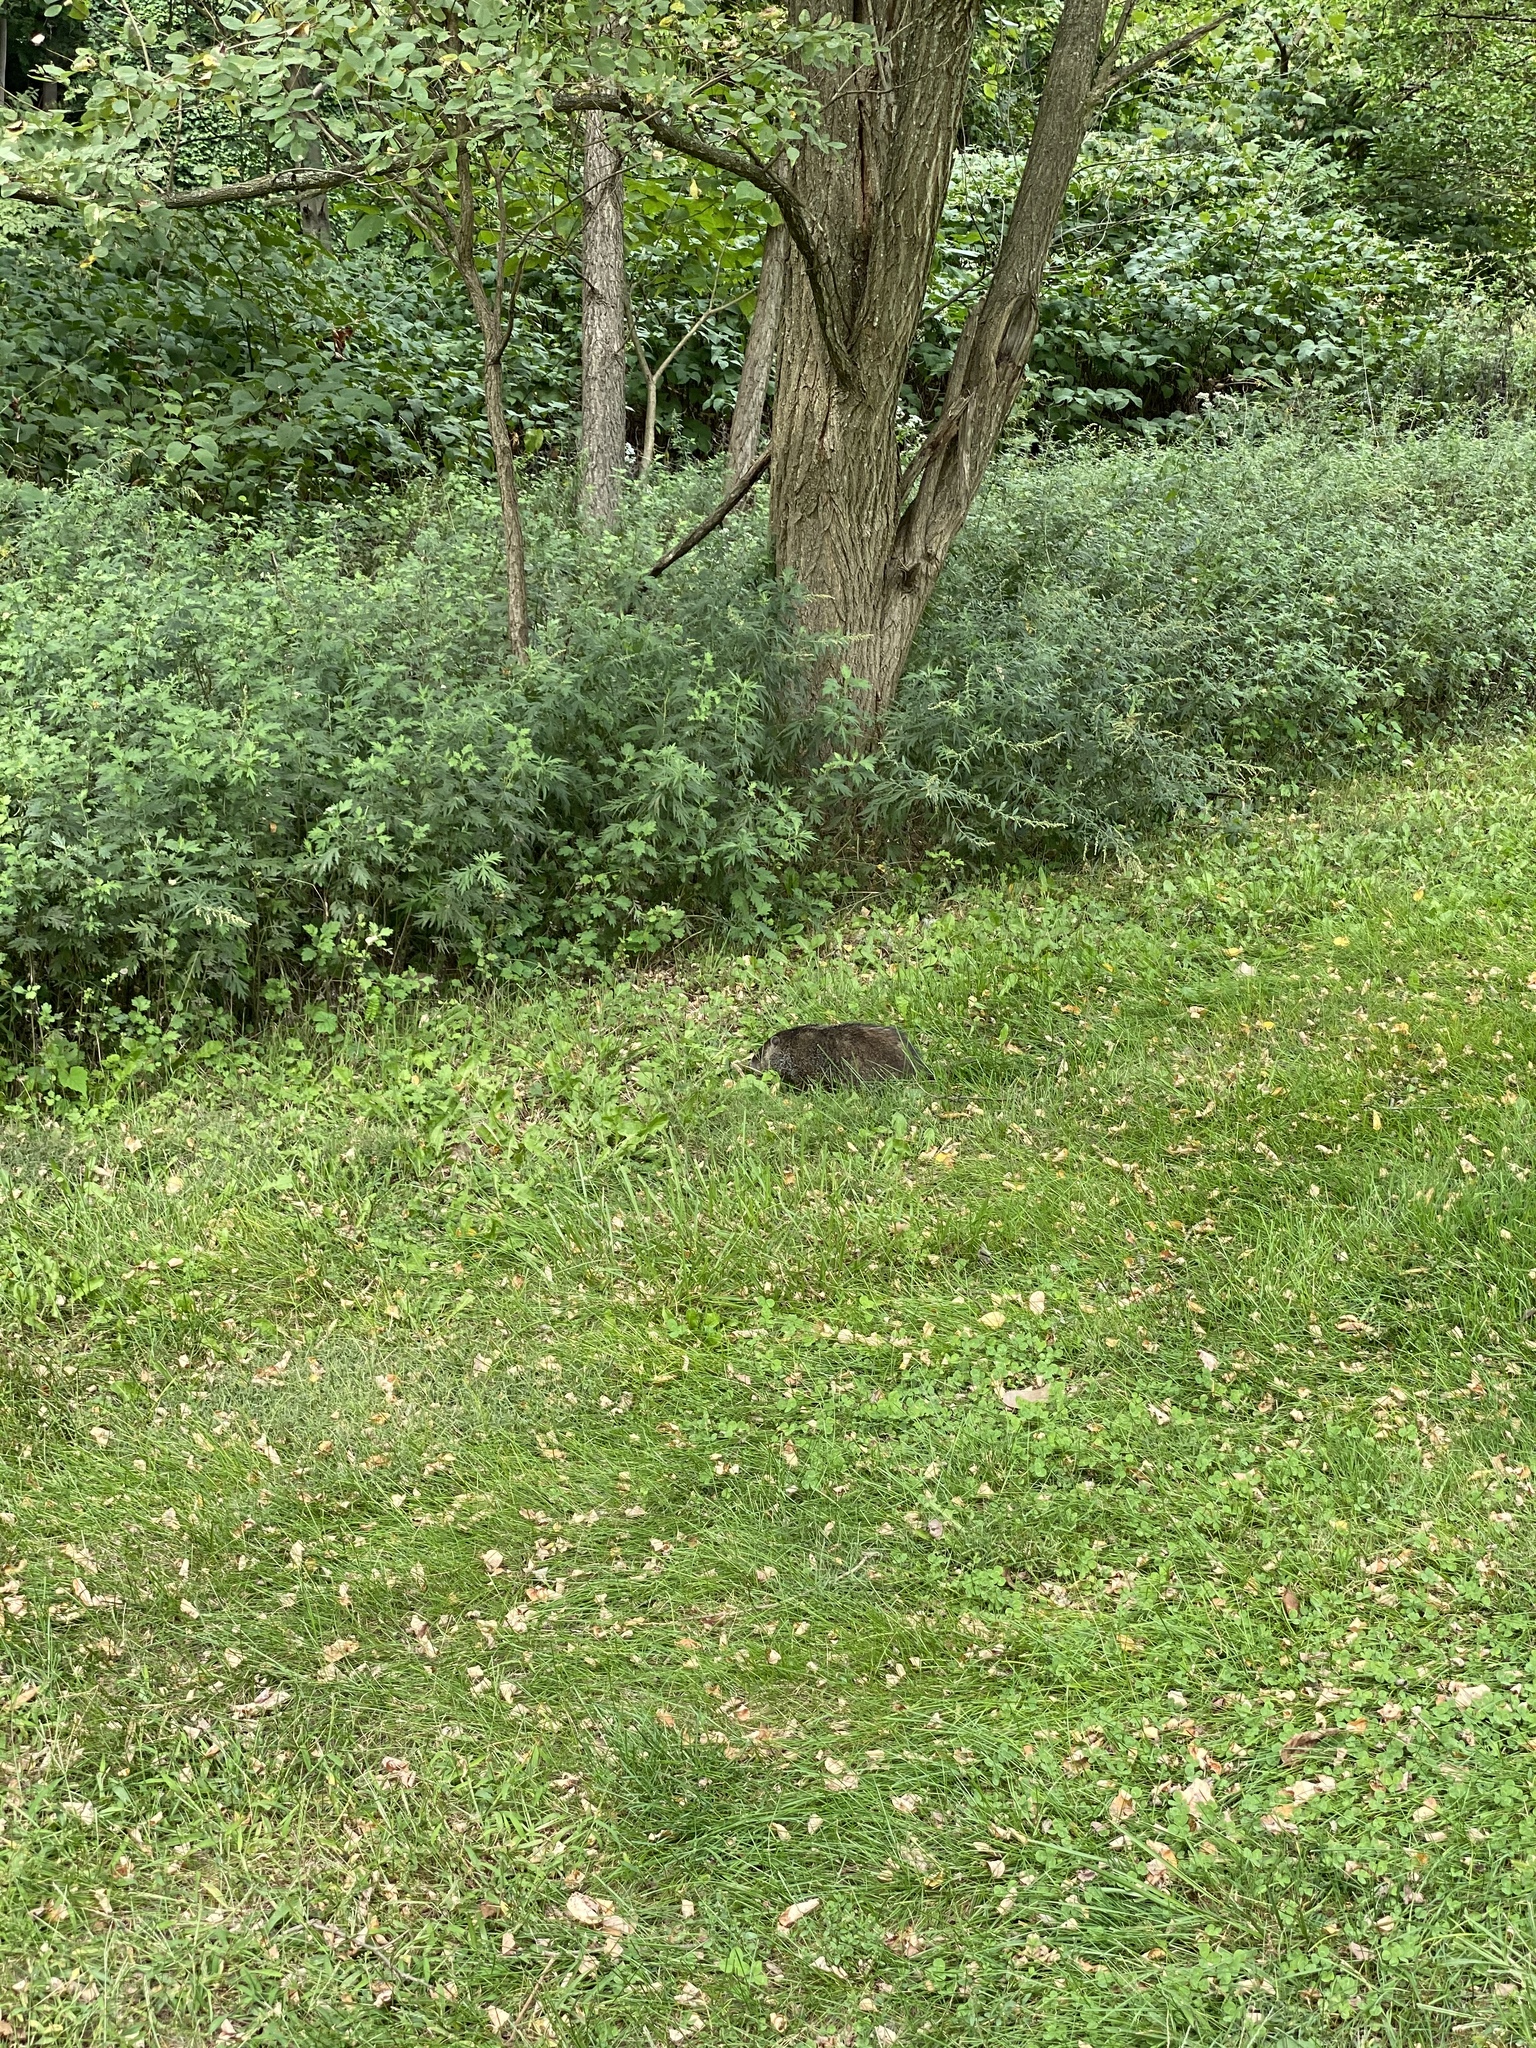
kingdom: Animalia
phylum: Chordata
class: Mammalia
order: Rodentia
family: Sciuridae
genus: Marmota
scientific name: Marmota monax
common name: Groundhog
